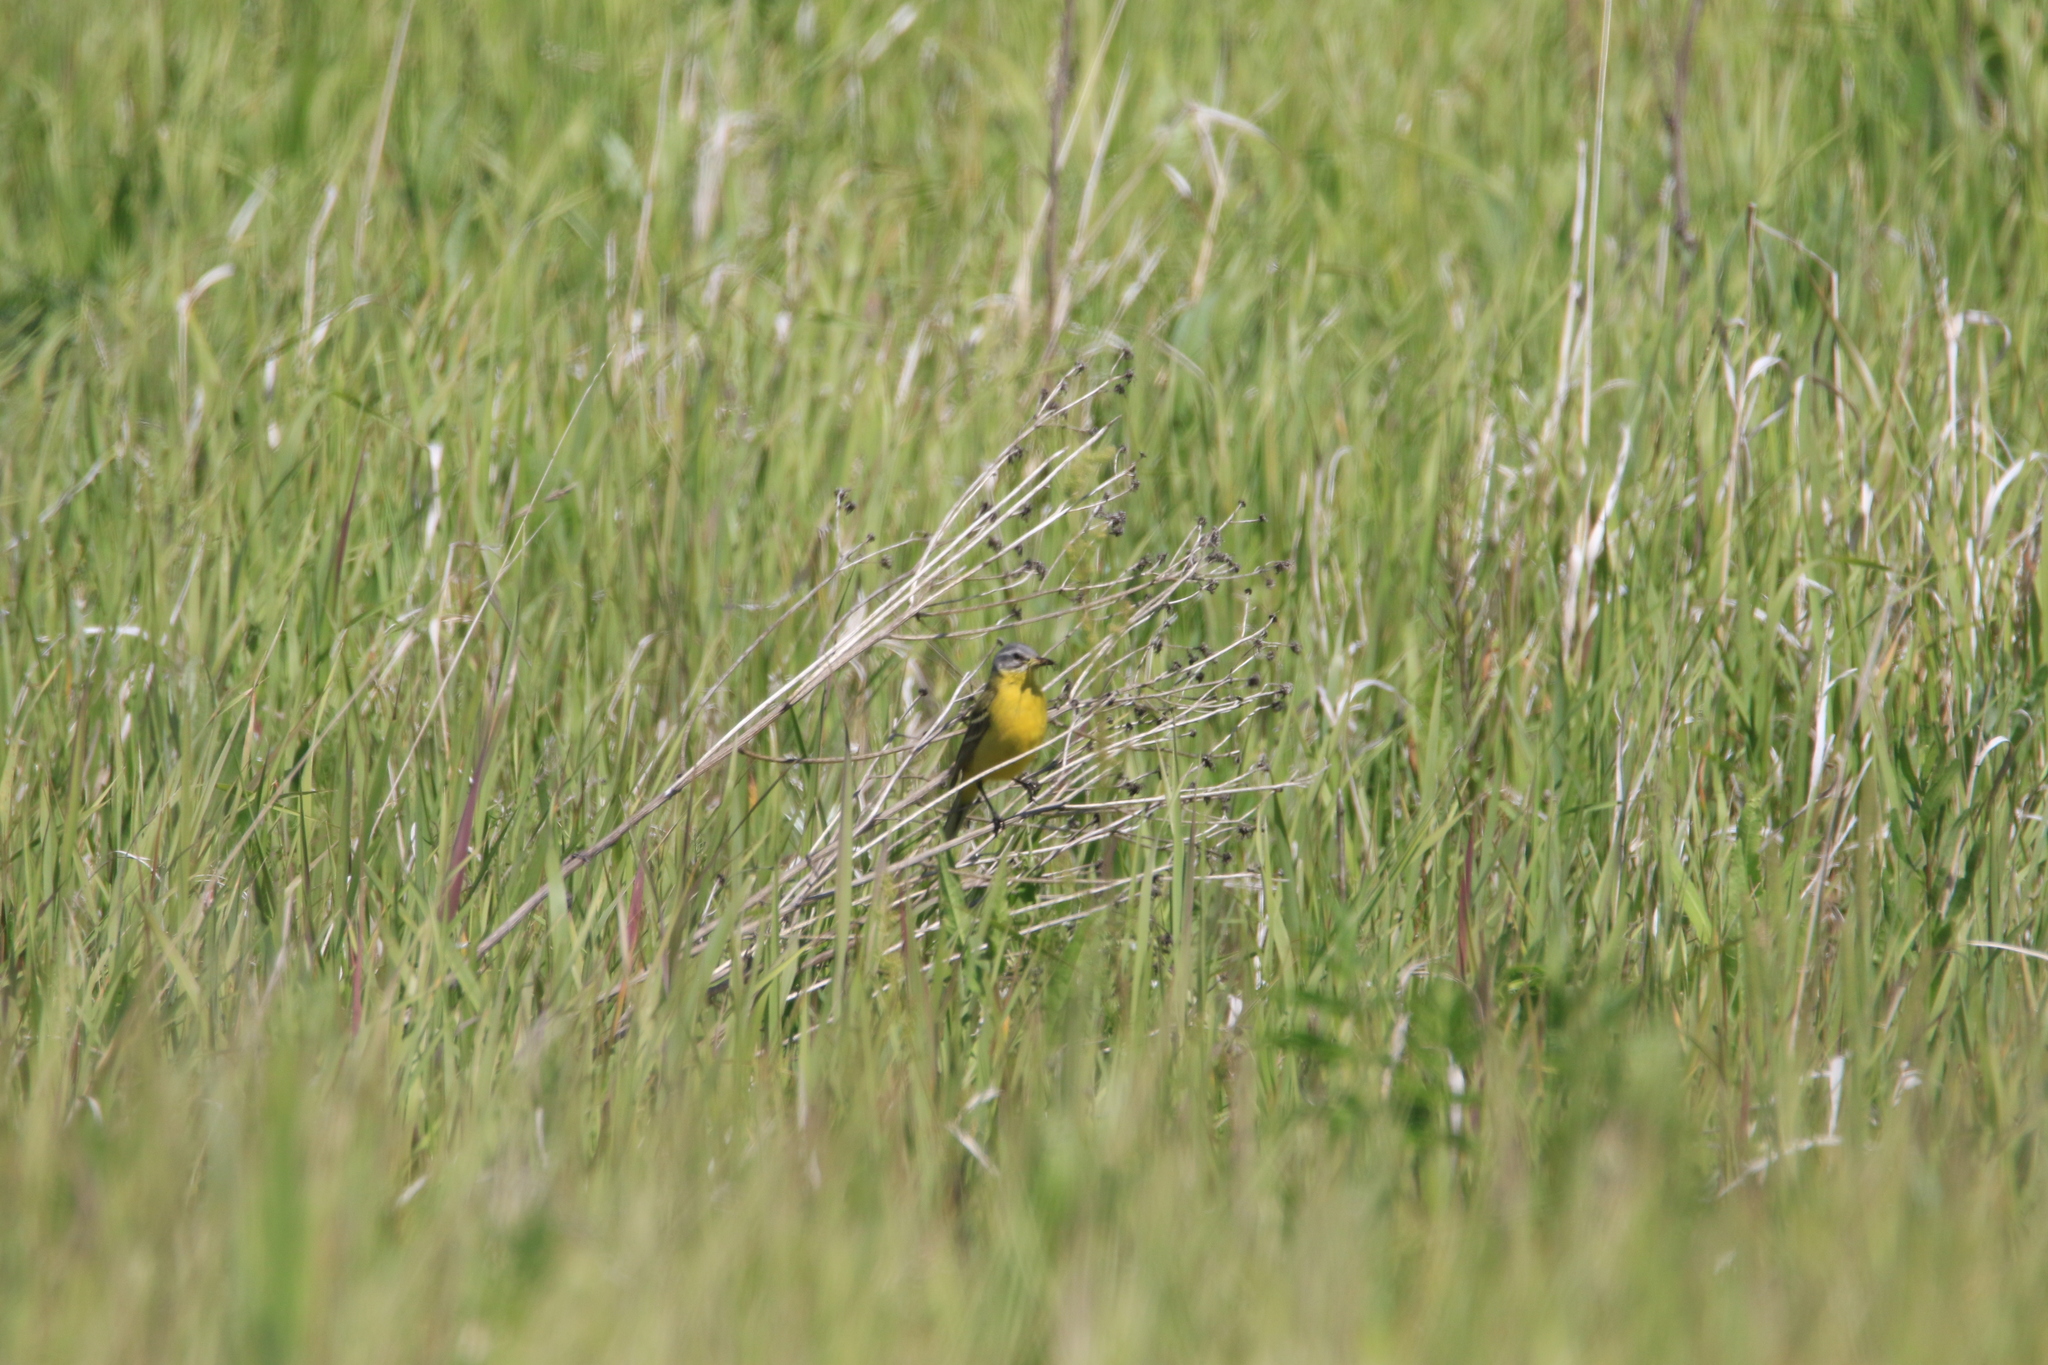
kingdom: Animalia
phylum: Chordata
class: Aves
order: Passeriformes
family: Motacillidae
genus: Motacilla
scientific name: Motacilla flava
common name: Western yellow wagtail
